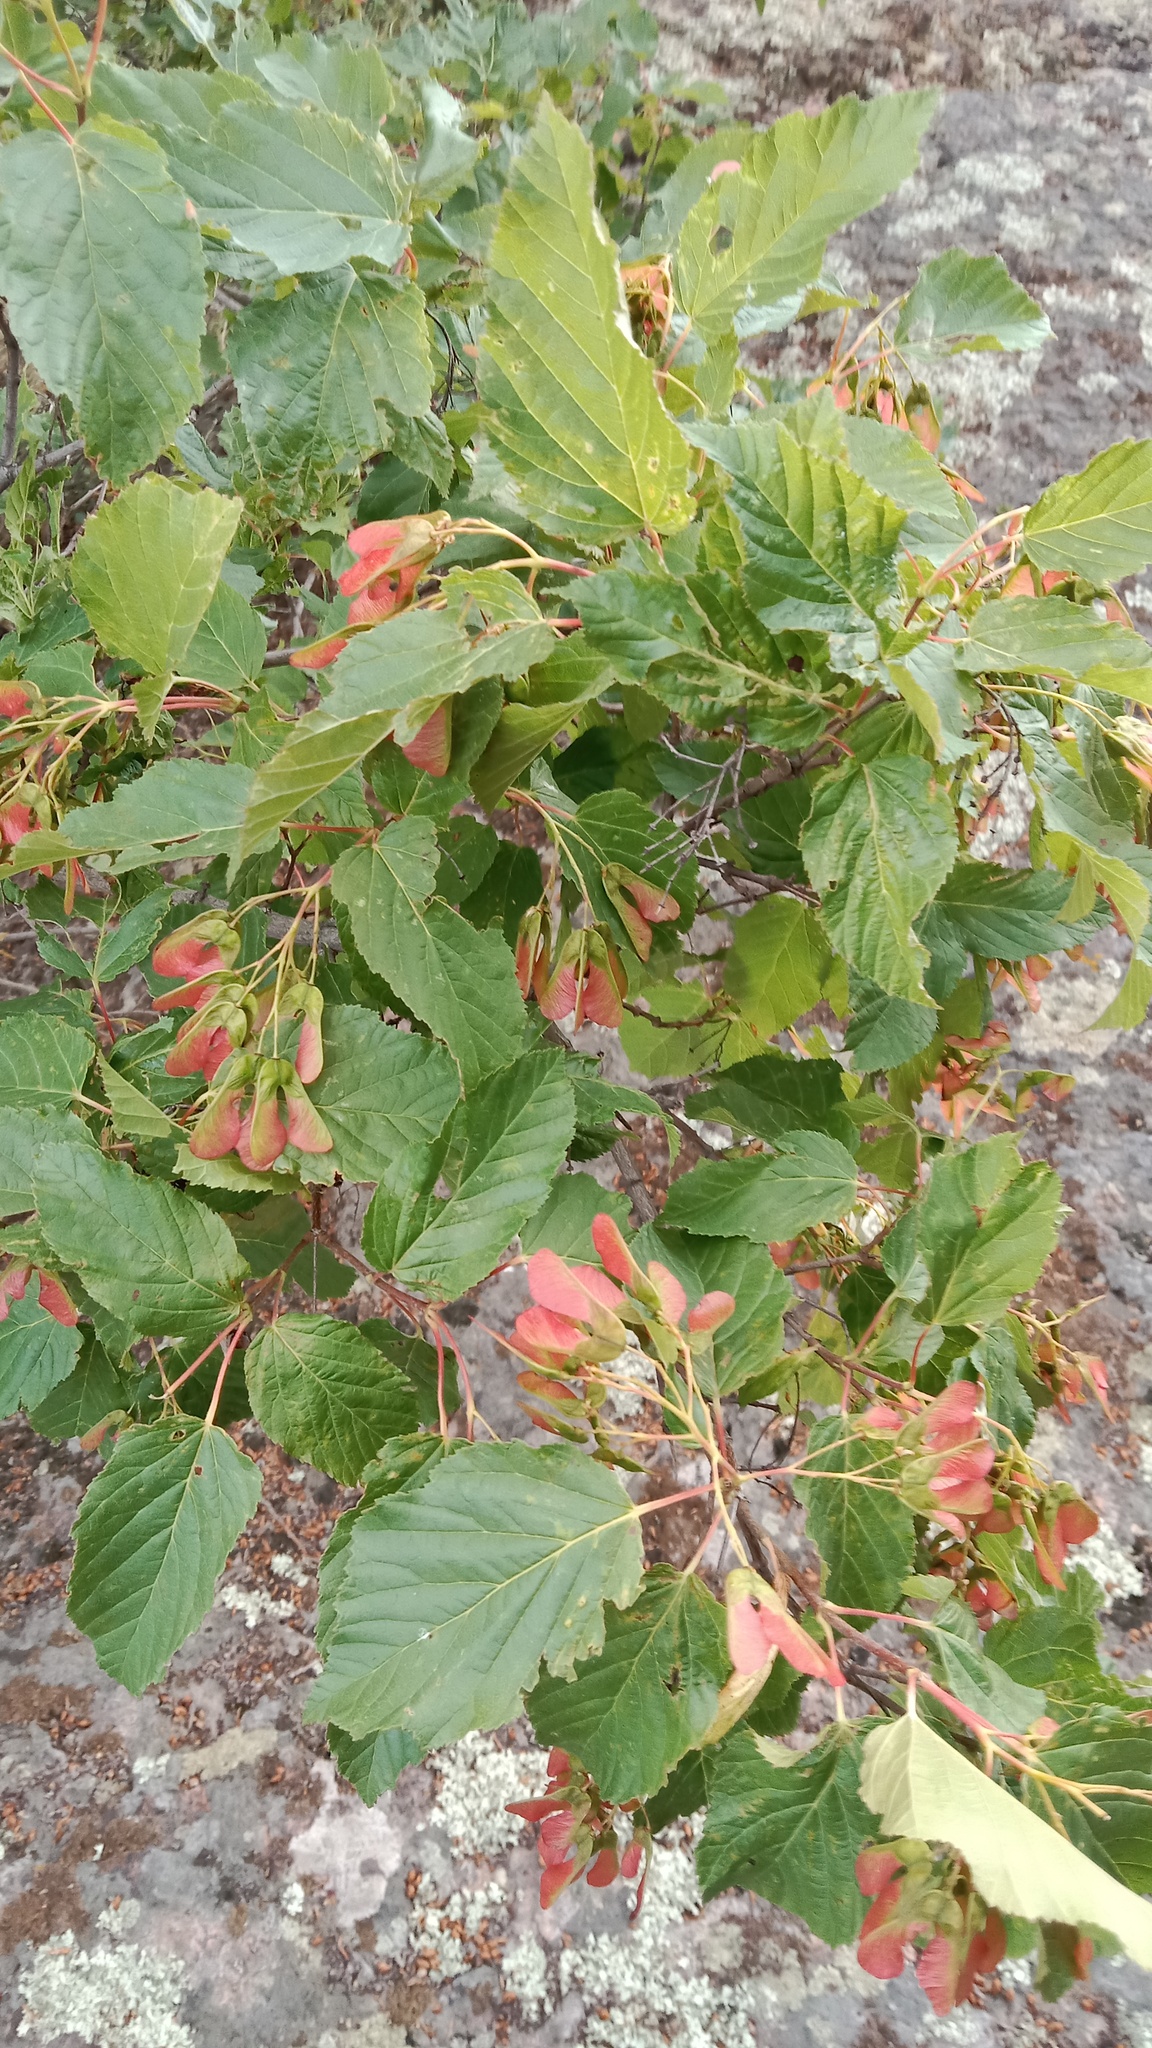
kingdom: Plantae
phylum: Tracheophyta
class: Magnoliopsida
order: Sapindales
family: Sapindaceae
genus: Acer
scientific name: Acer tataricum
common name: Tartar maple
